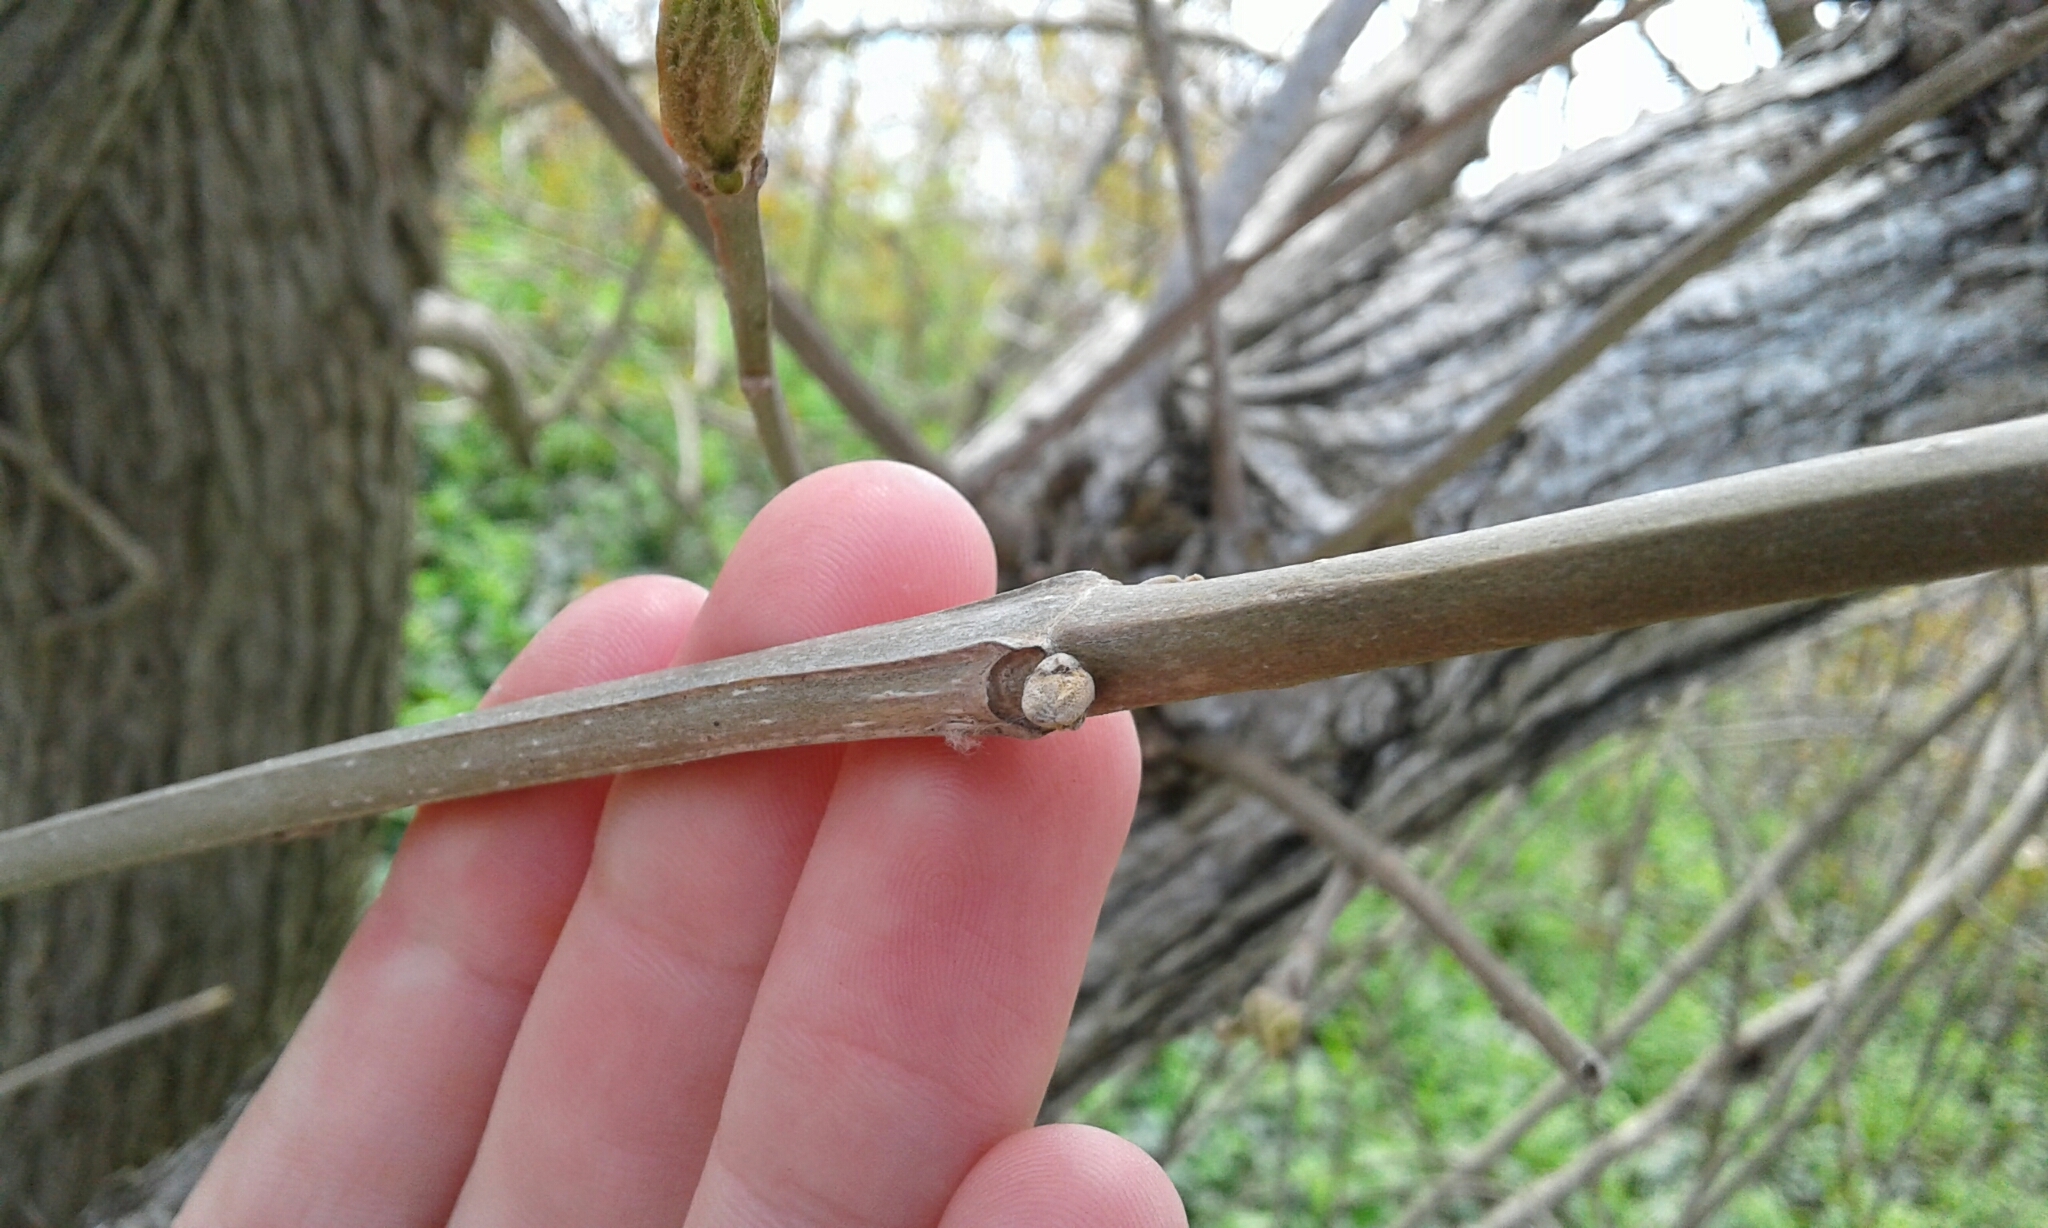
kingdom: Plantae
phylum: Tracheophyta
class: Magnoliopsida
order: Lamiales
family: Oleaceae
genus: Fraxinus
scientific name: Fraxinus quadrangulata
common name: Blue ash
